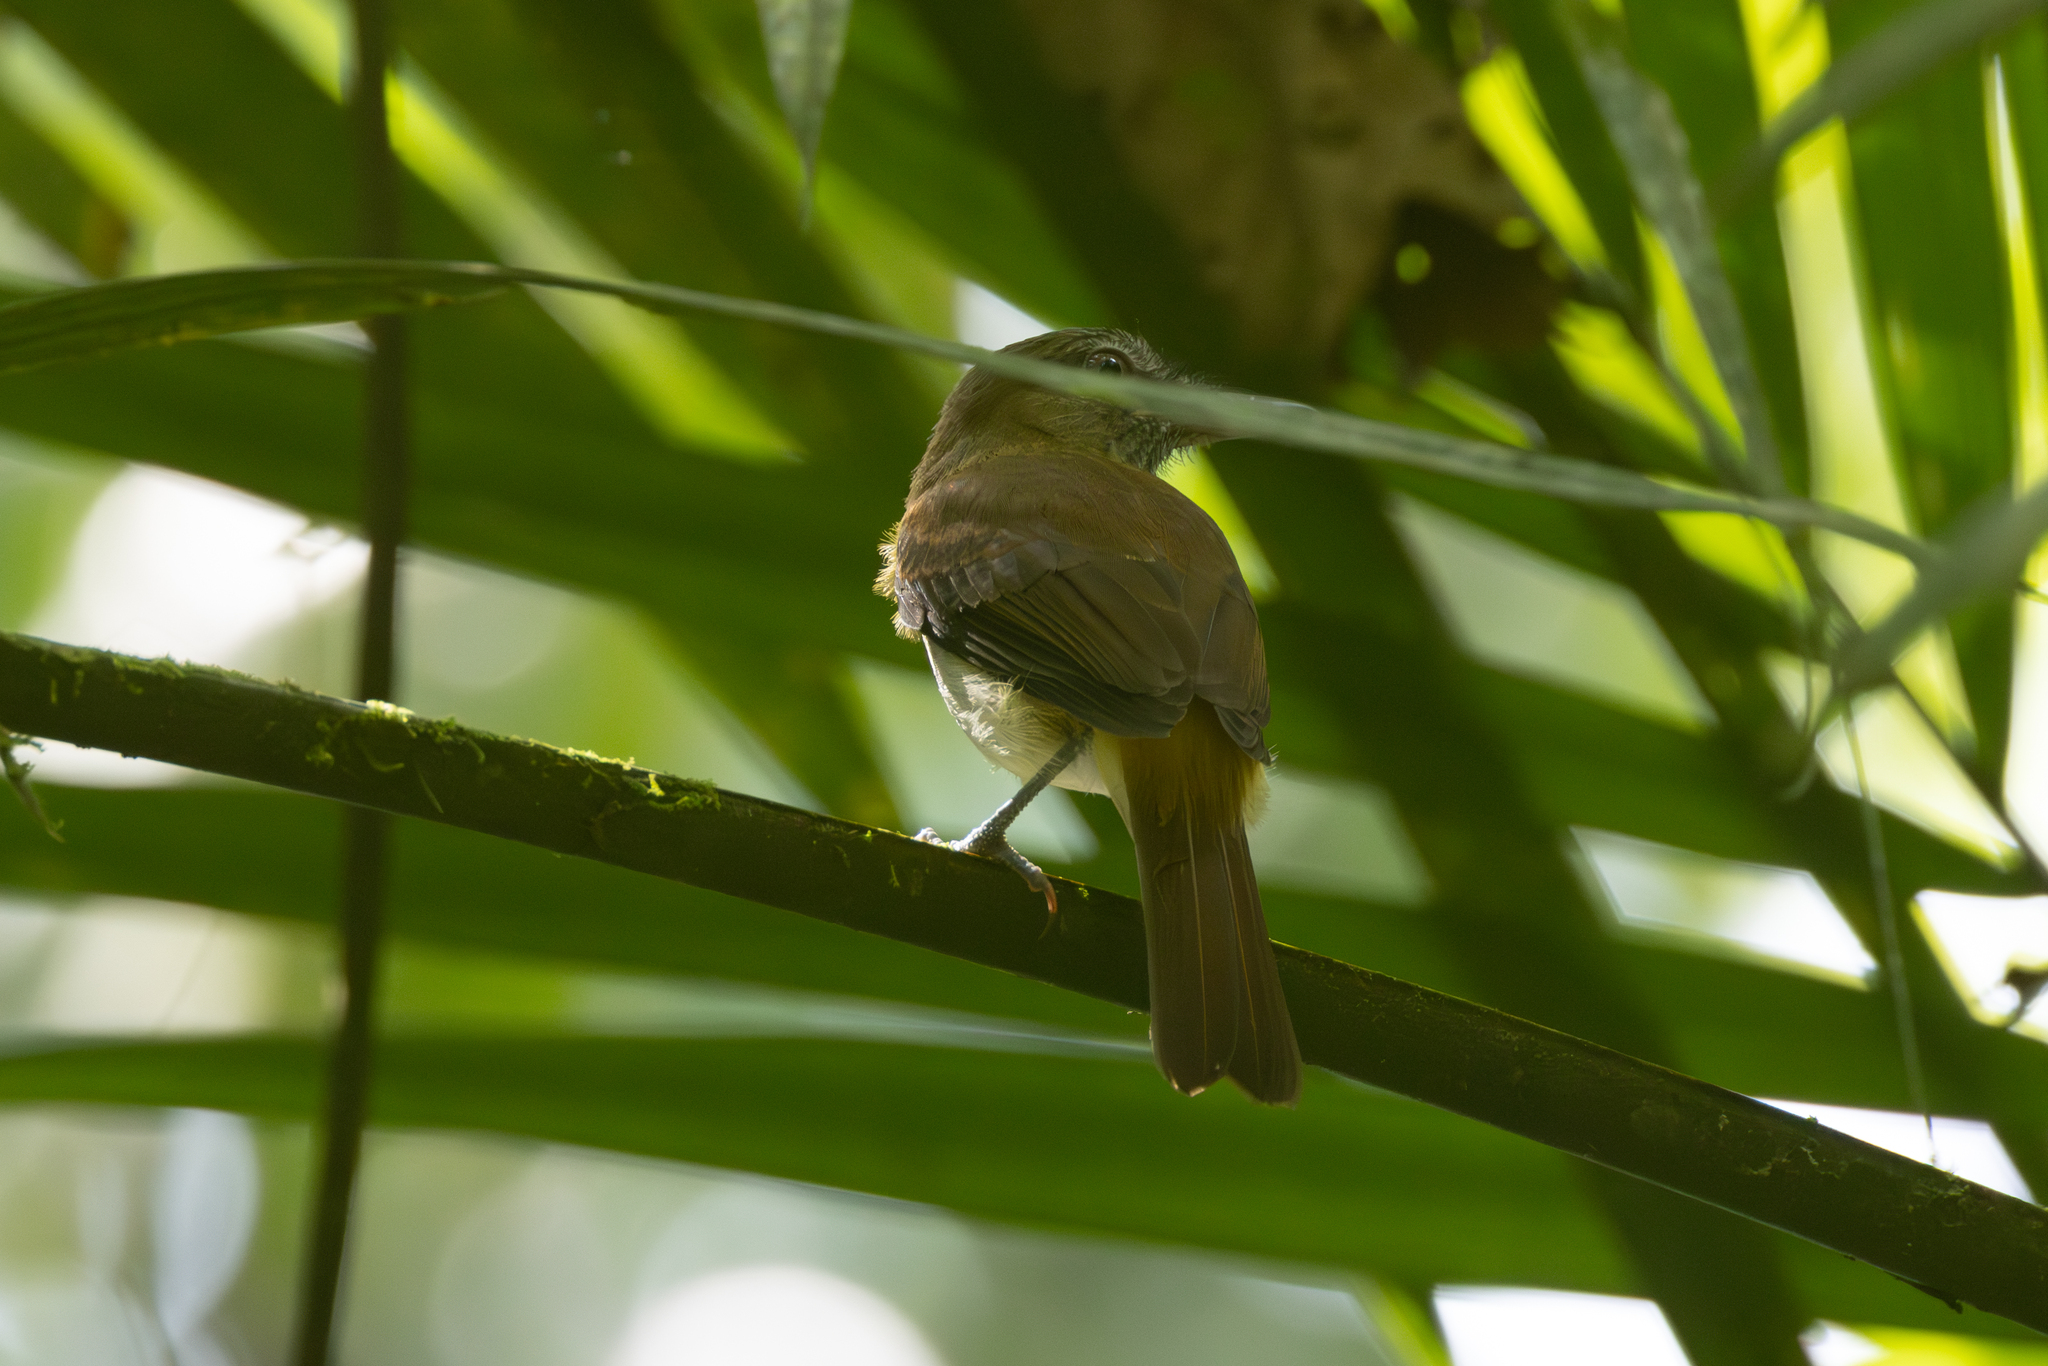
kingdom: Animalia
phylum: Chordata
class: Aves
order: Passeriformes
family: Tyrannidae
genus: Attila
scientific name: Attila spadiceus
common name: Bright-rumped attila
